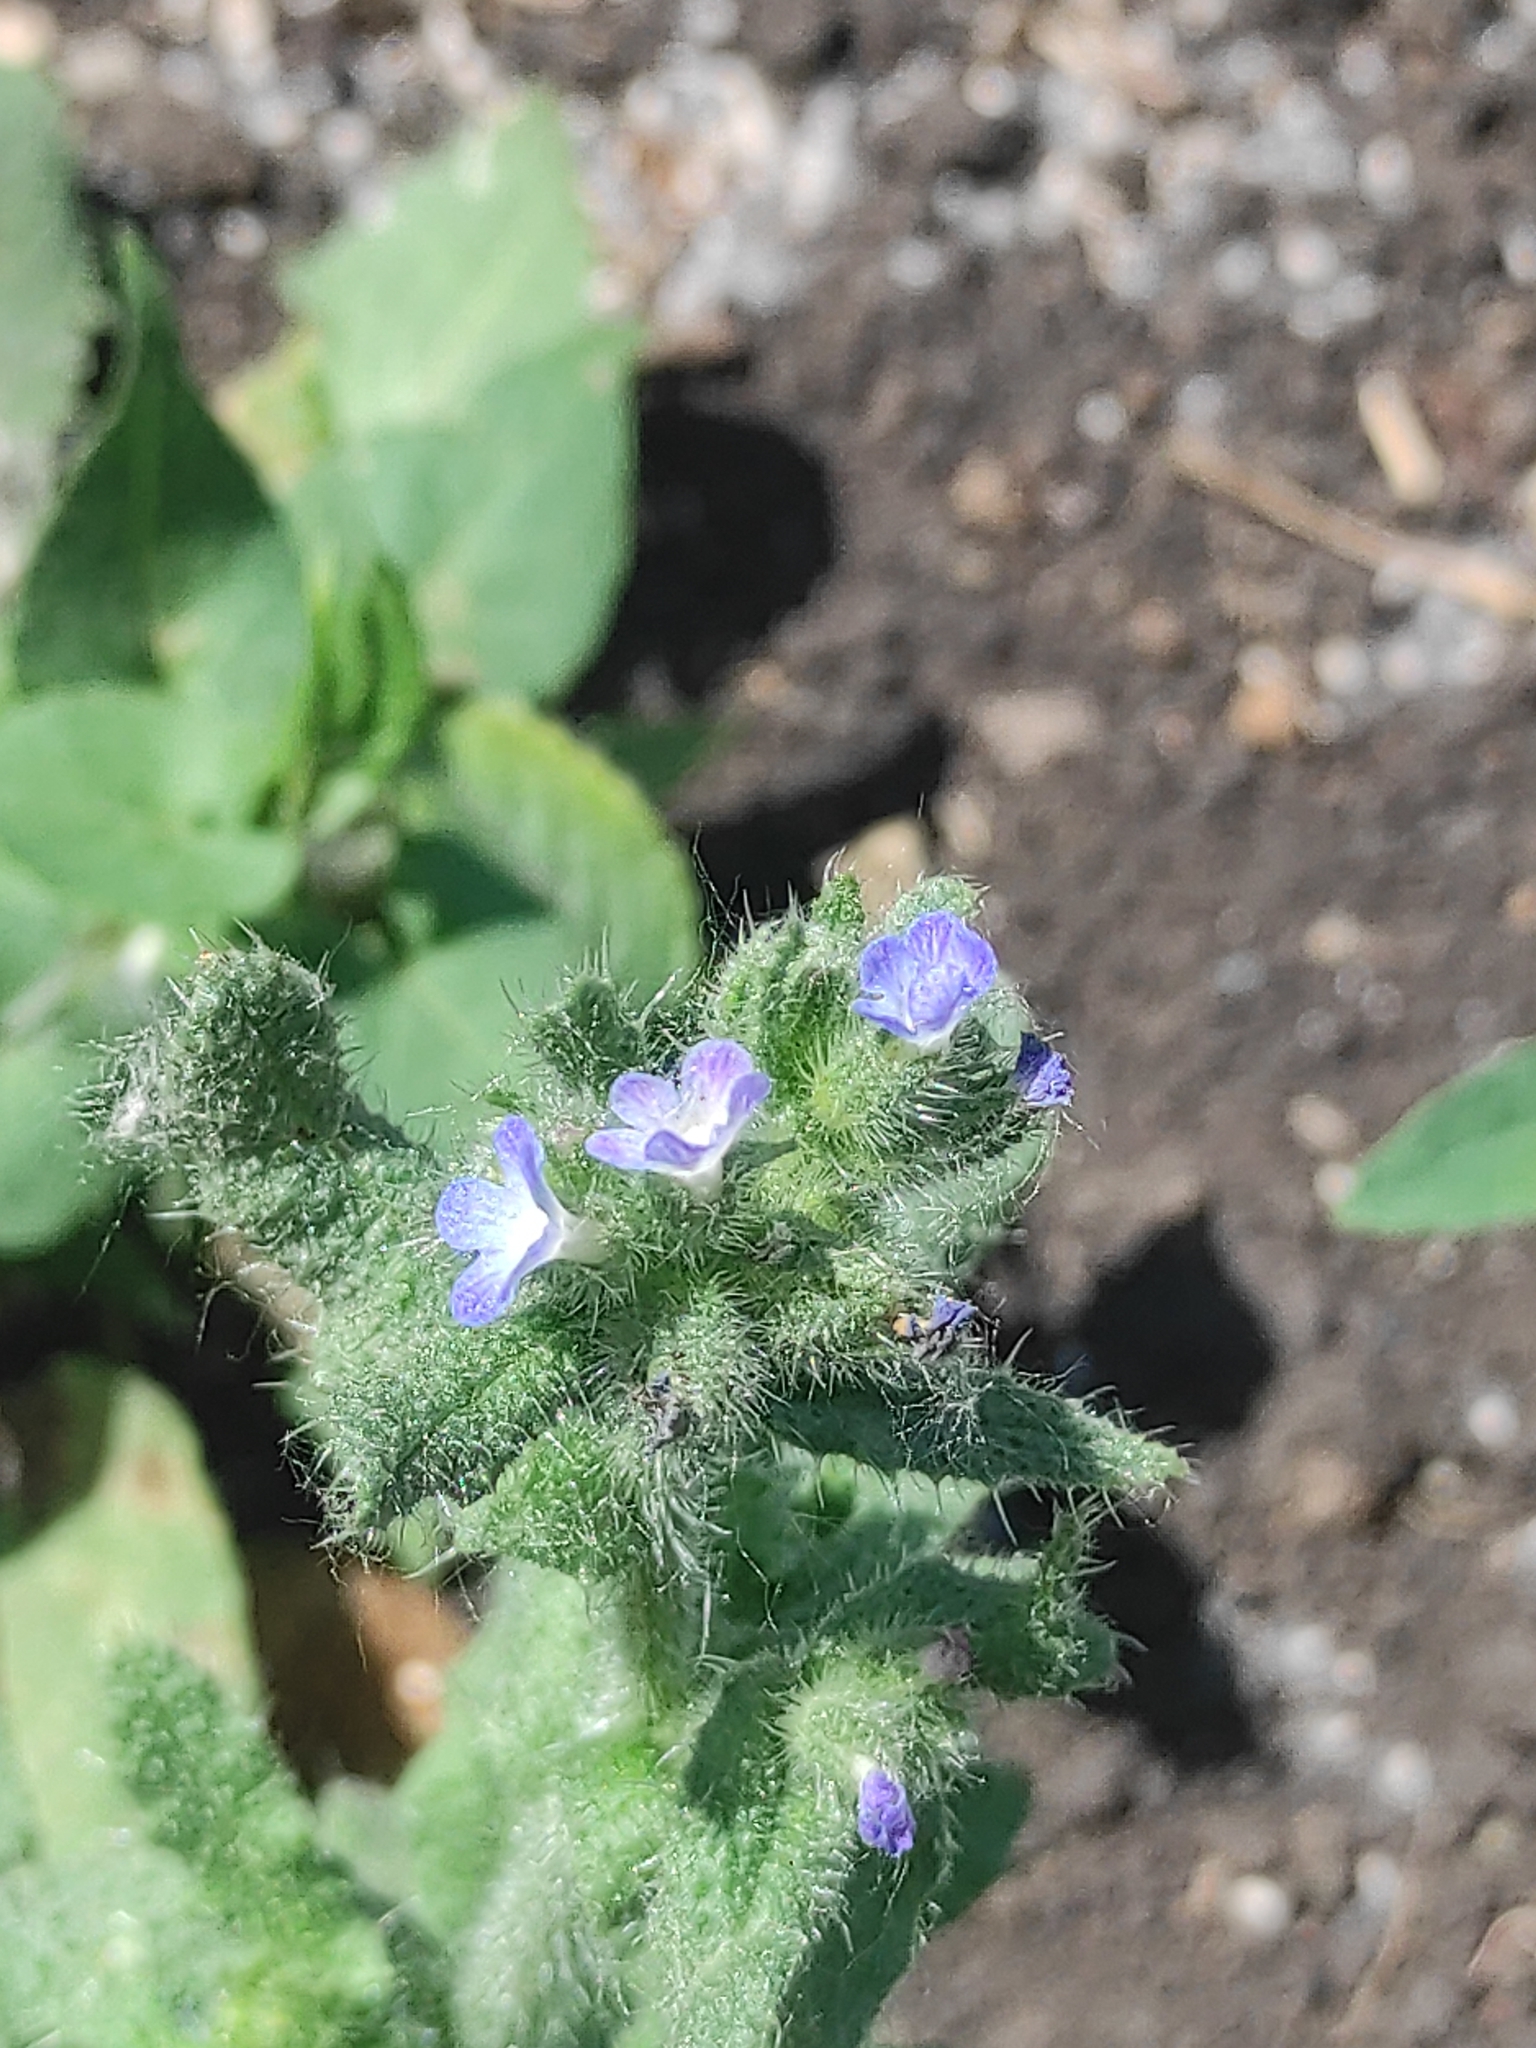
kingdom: Plantae
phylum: Tracheophyta
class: Magnoliopsida
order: Boraginales
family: Boraginaceae
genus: Lycopsis
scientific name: Lycopsis arvensis
